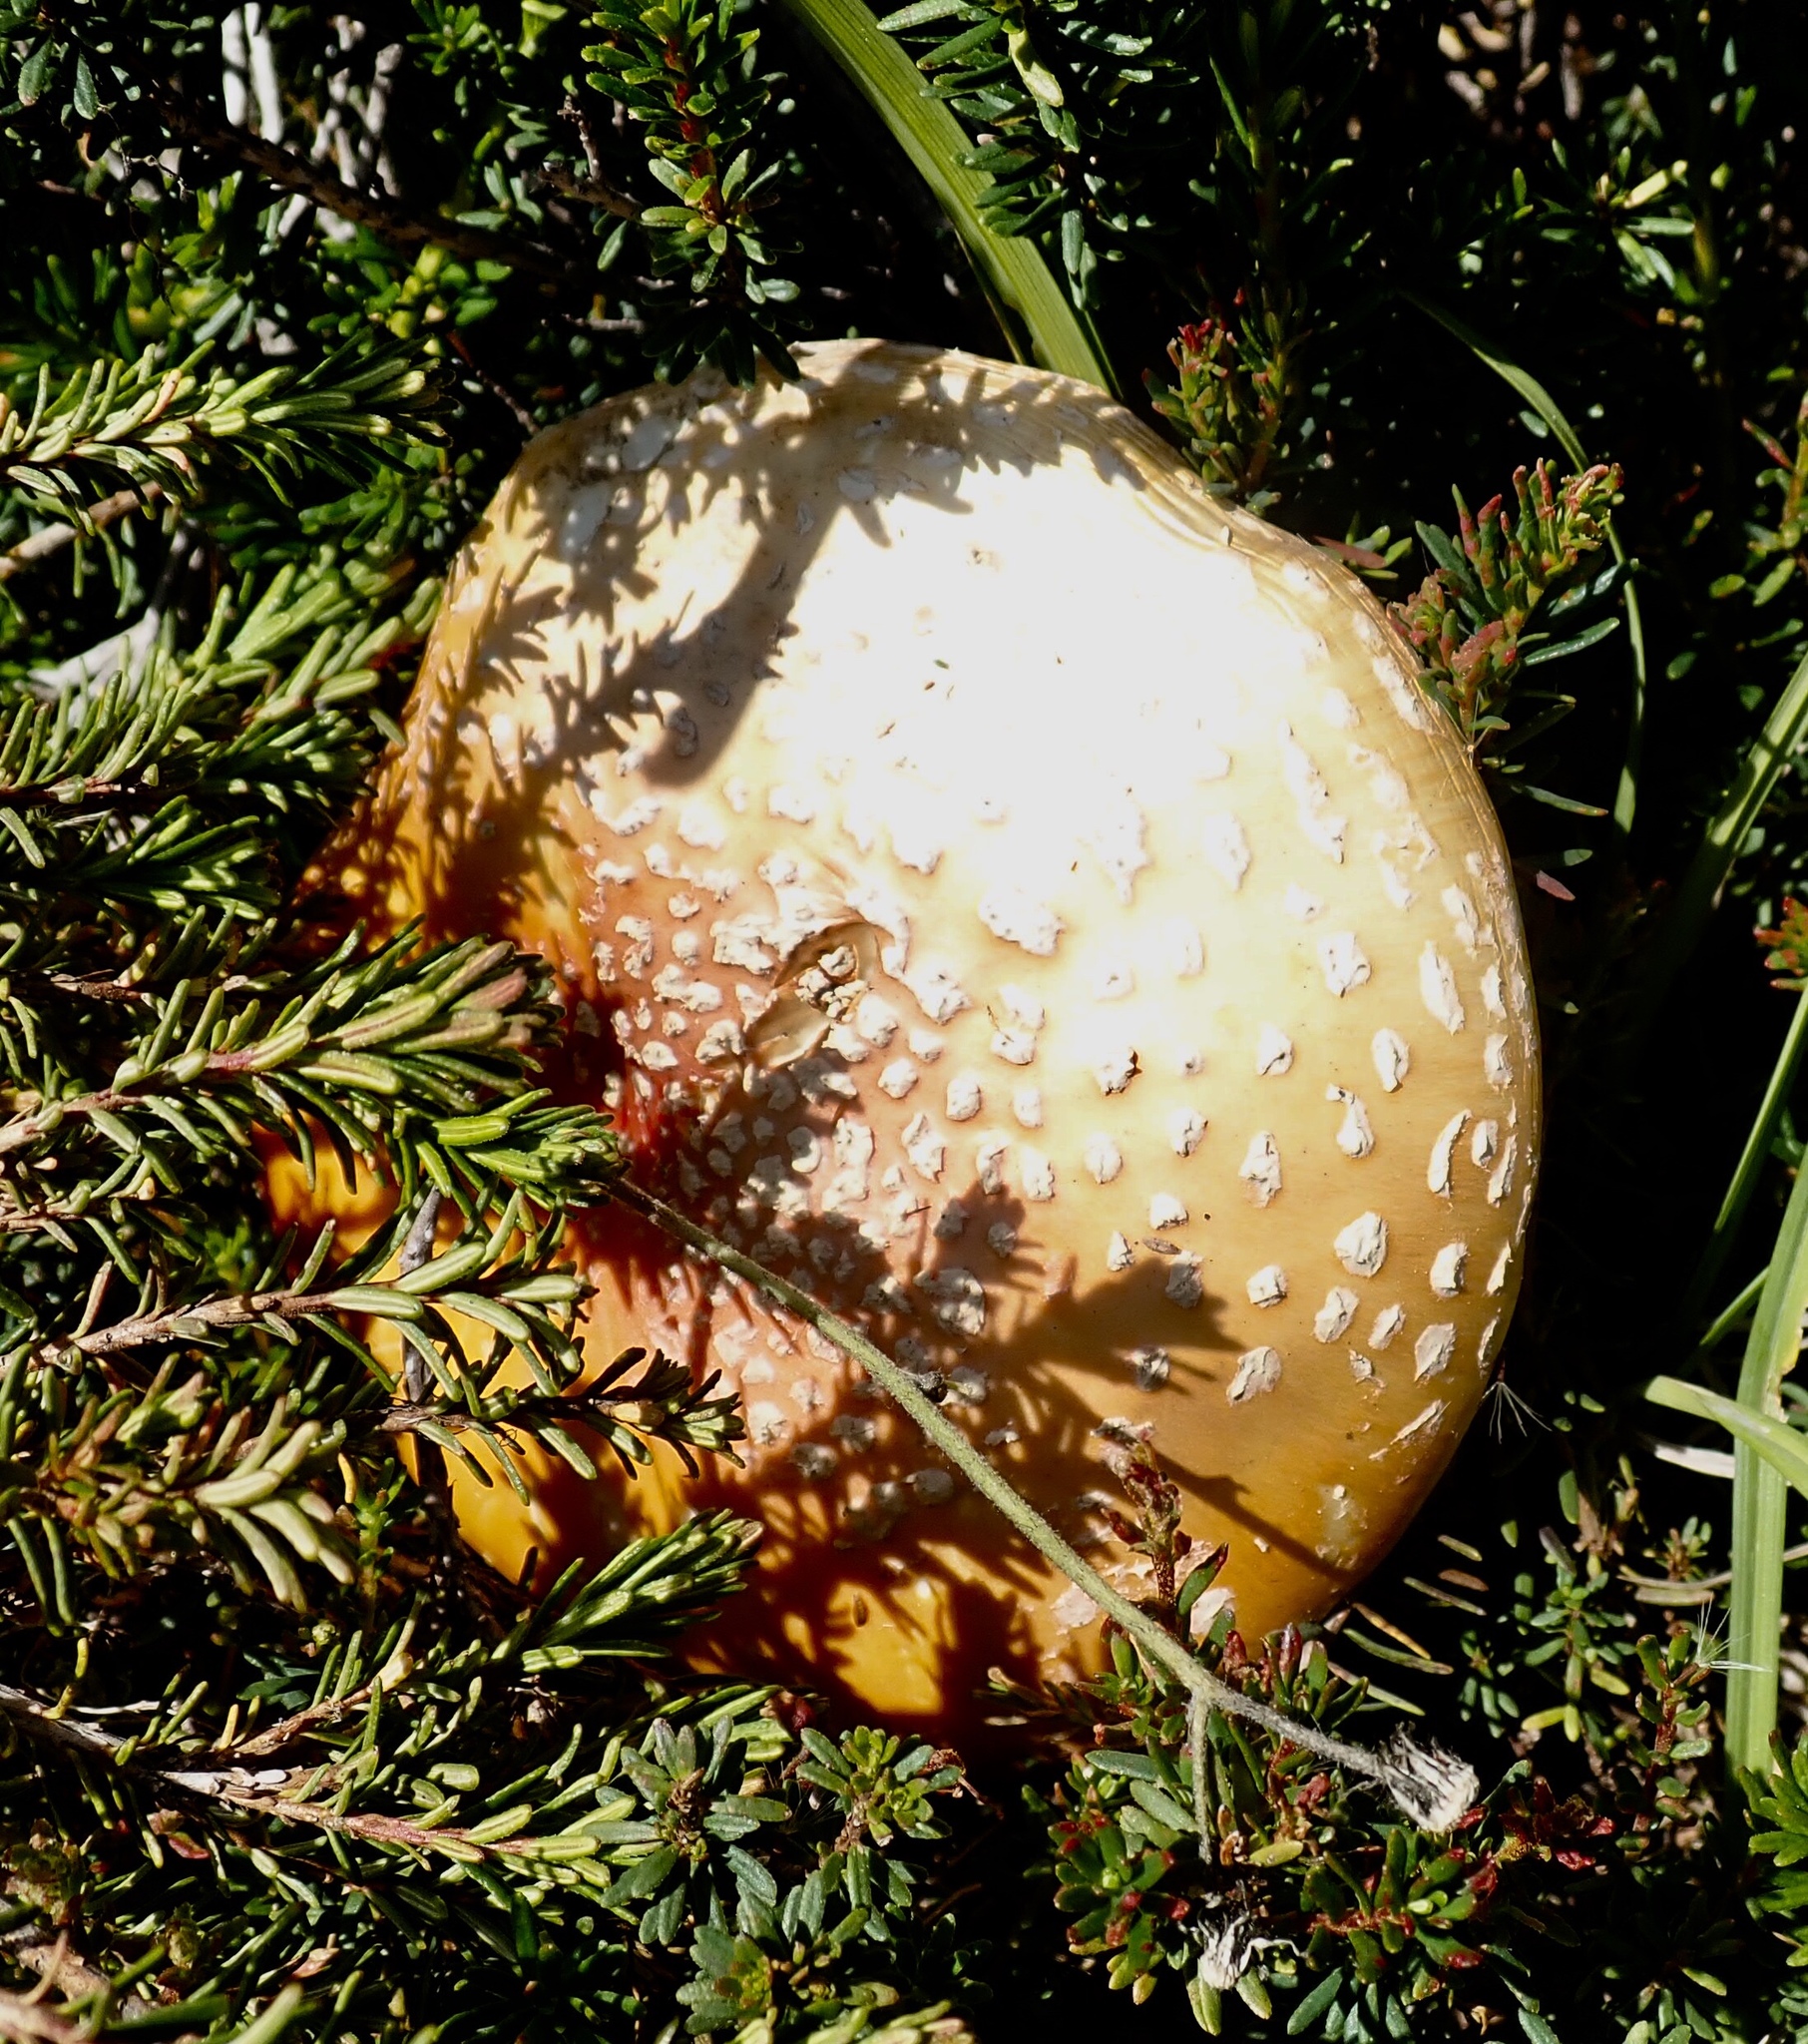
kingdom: Fungi
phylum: Basidiomycota
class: Agaricomycetes
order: Agaricales
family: Amanitaceae
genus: Amanita
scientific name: Amanita muscaria
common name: Fly agaric
